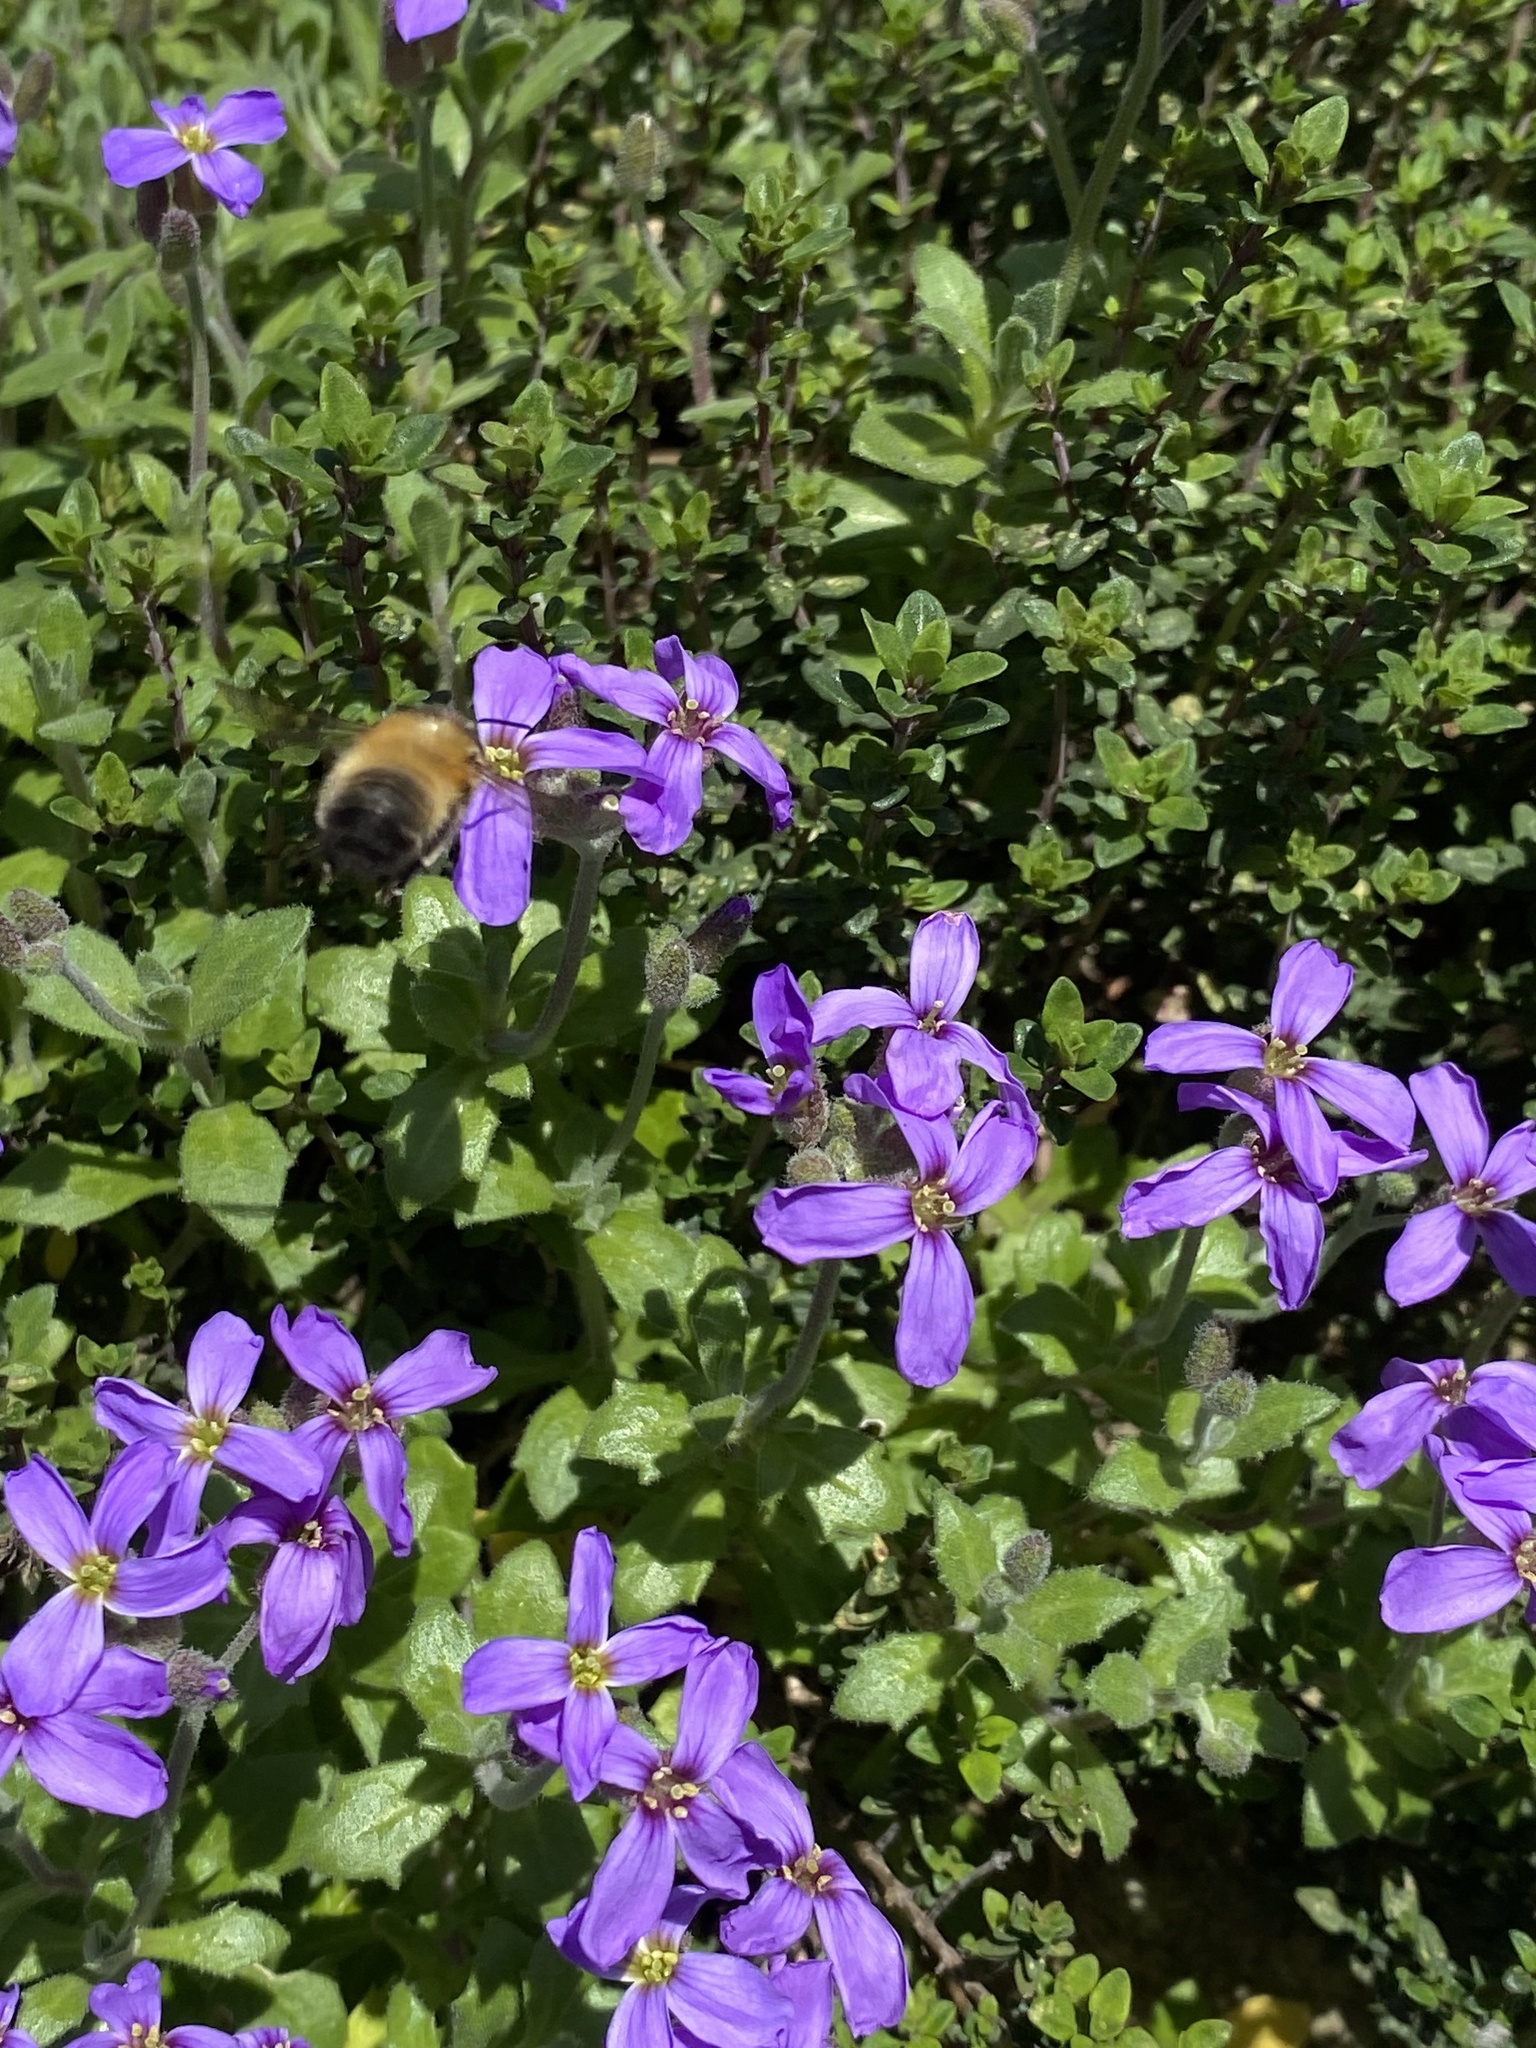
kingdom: Animalia
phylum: Arthropoda
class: Insecta
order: Hymenoptera
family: Apidae
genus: Anthophora
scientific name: Anthophora plumipes
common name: Hairy-footed flower bee
